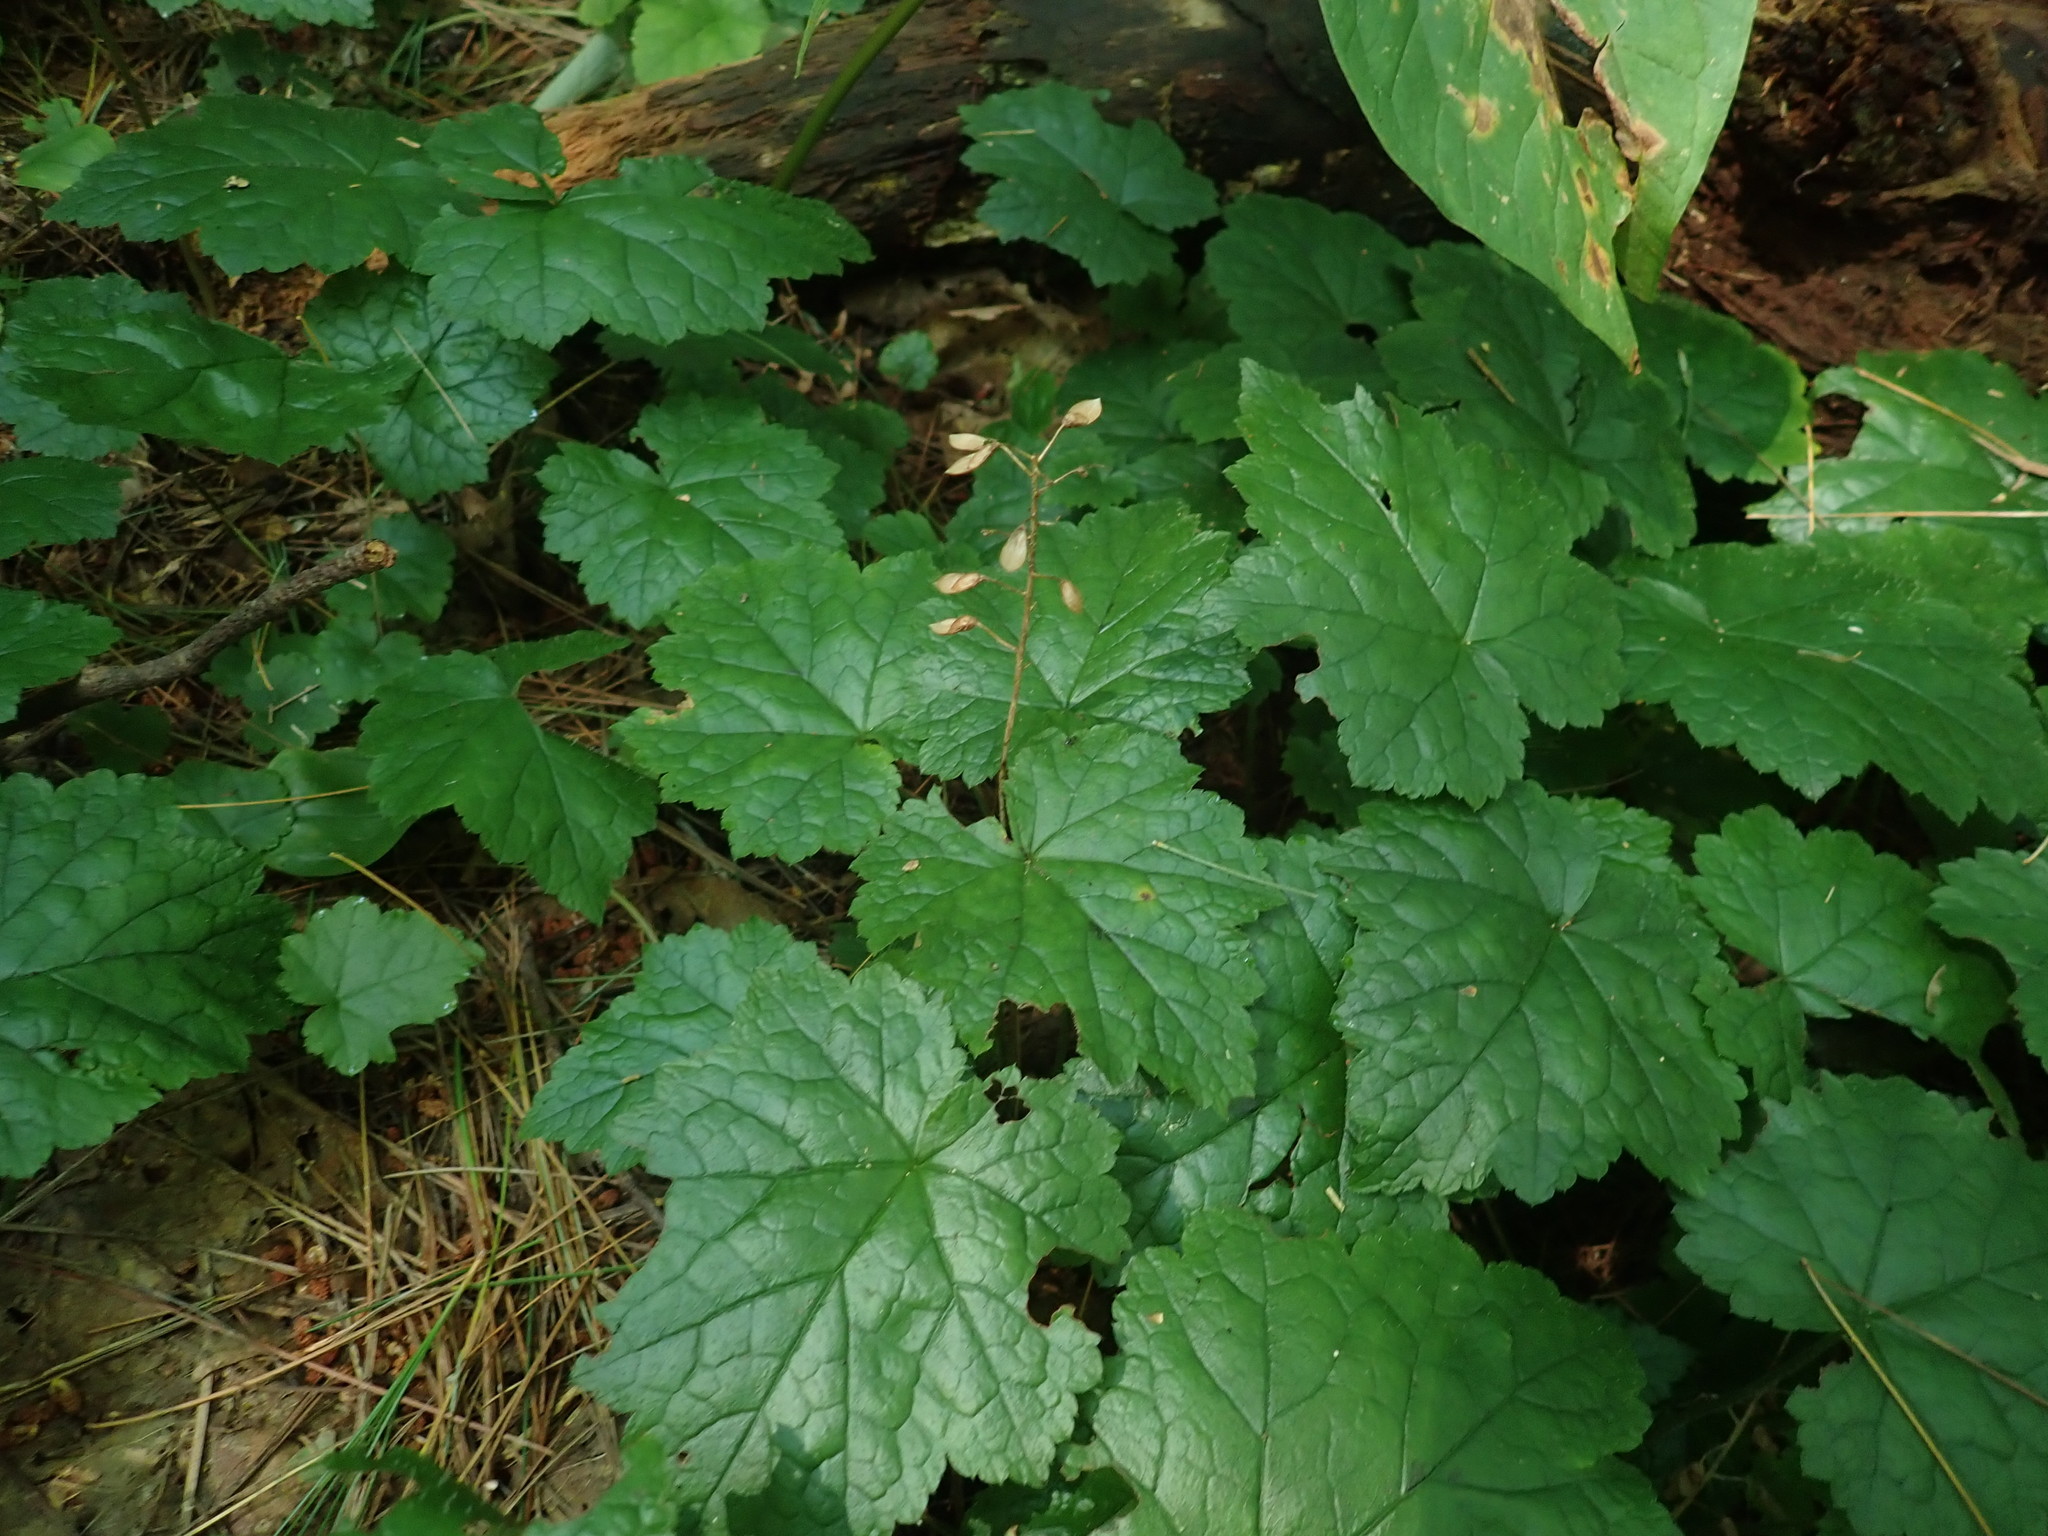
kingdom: Plantae
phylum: Tracheophyta
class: Magnoliopsida
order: Saxifragales
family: Saxifragaceae
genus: Tiarella
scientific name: Tiarella stolonifera
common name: Stoloniferous foamflower
